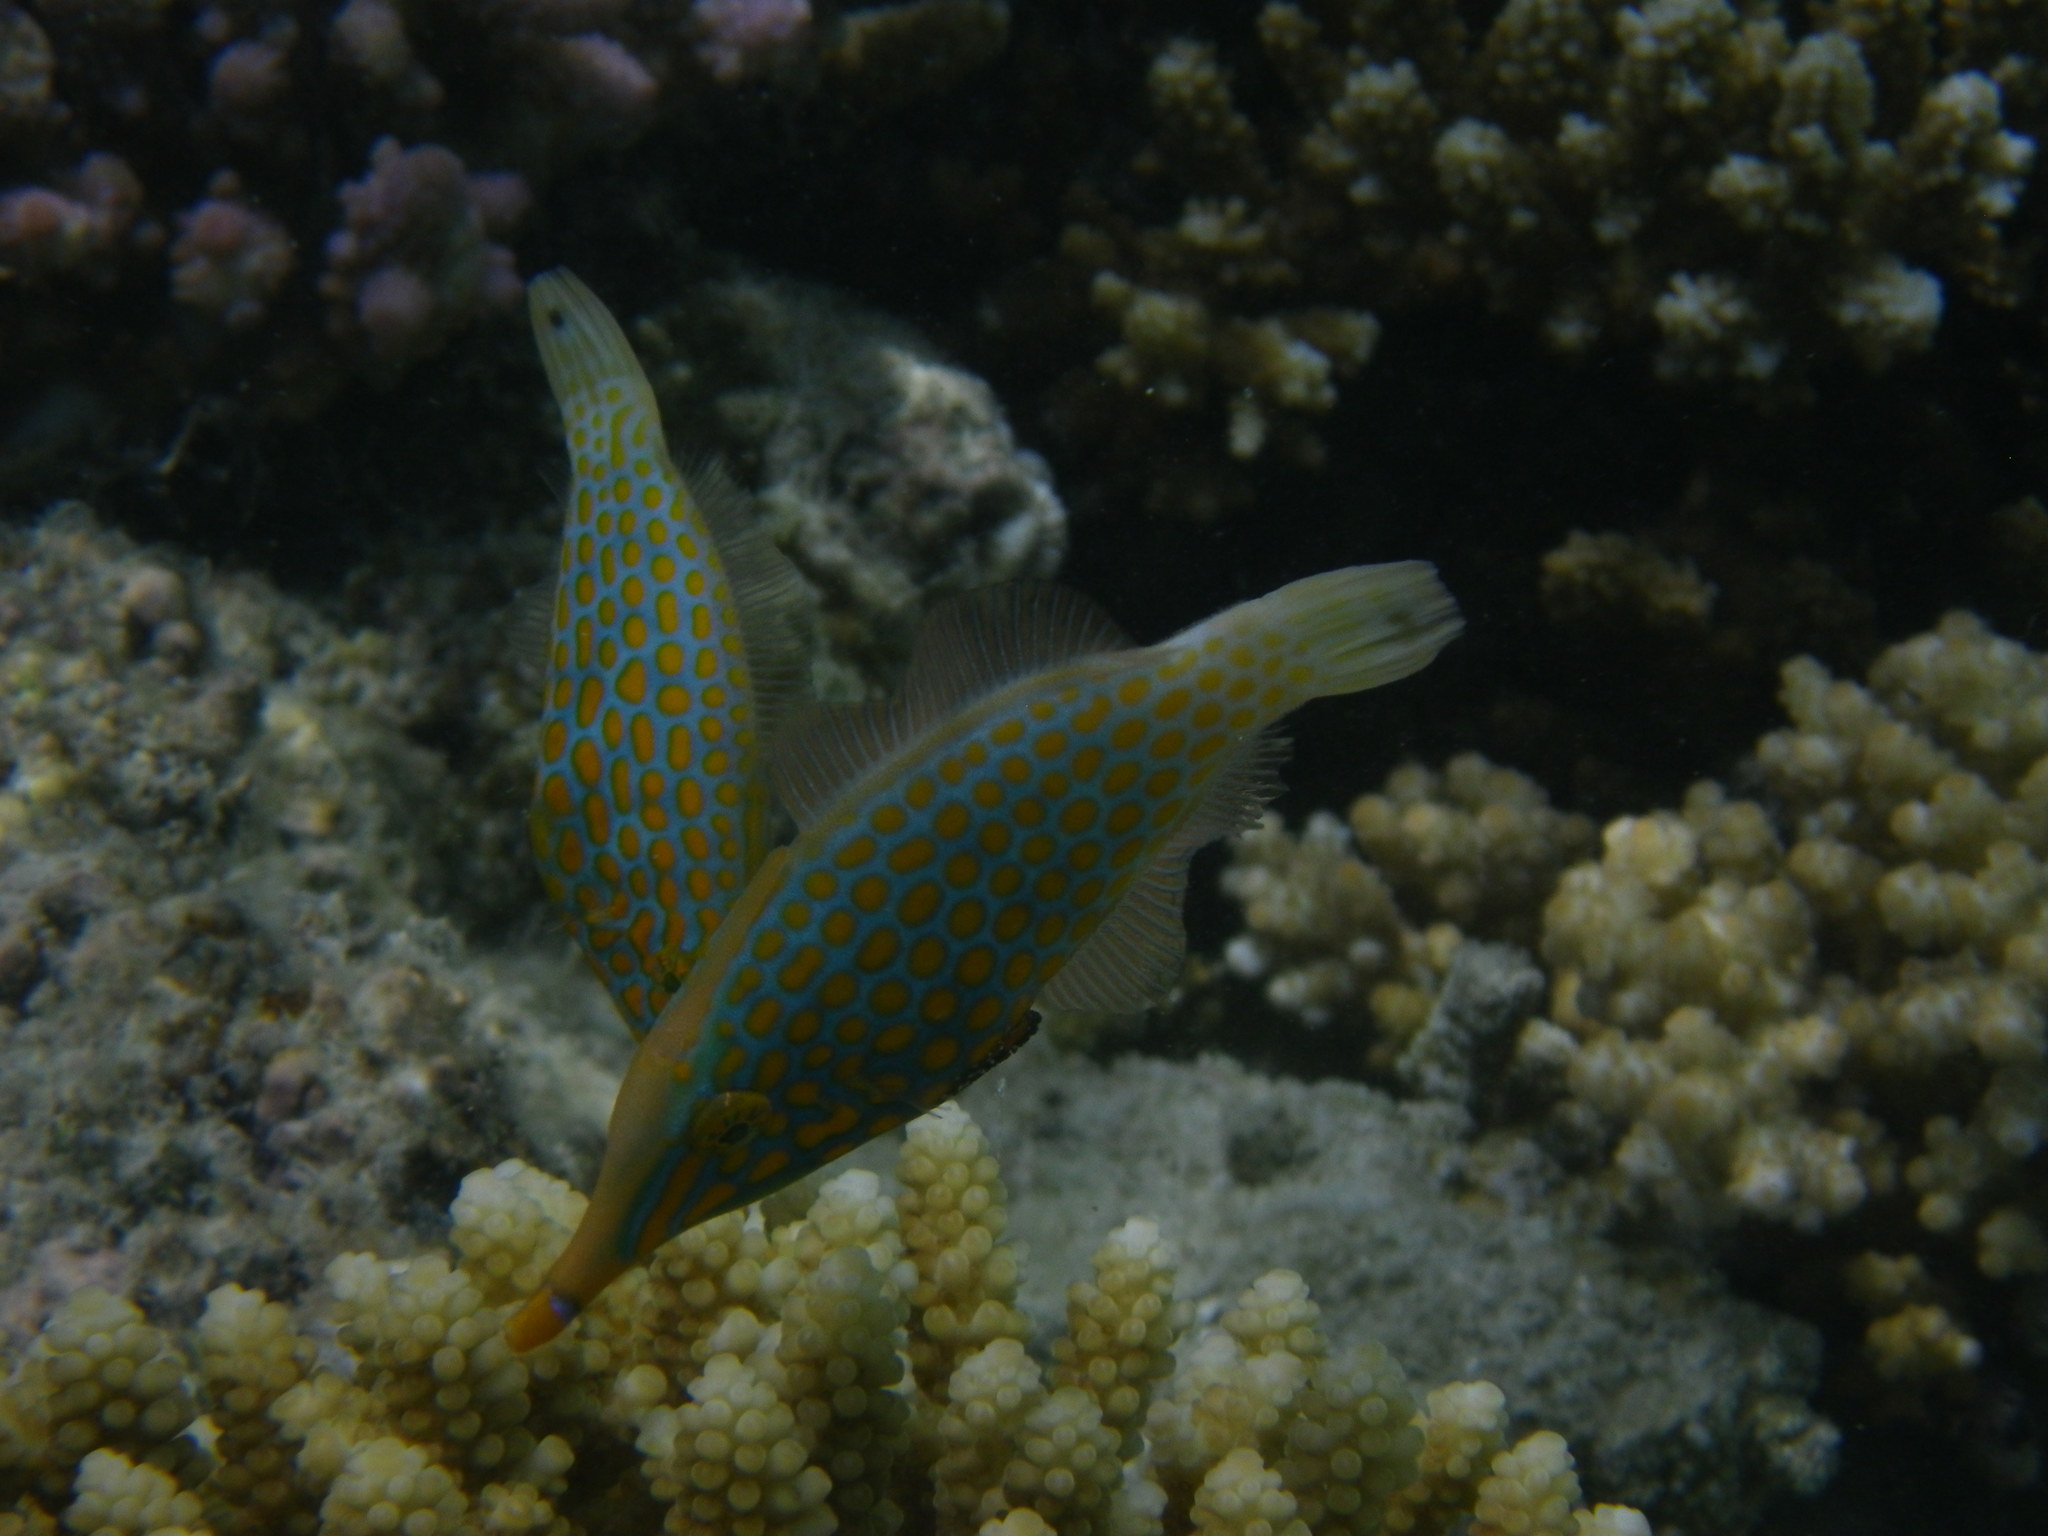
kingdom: Animalia
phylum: Chordata
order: Tetraodontiformes
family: Monacanthidae
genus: Oxymonacanthus
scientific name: Oxymonacanthus longirostris
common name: Beaked leatherjacket
